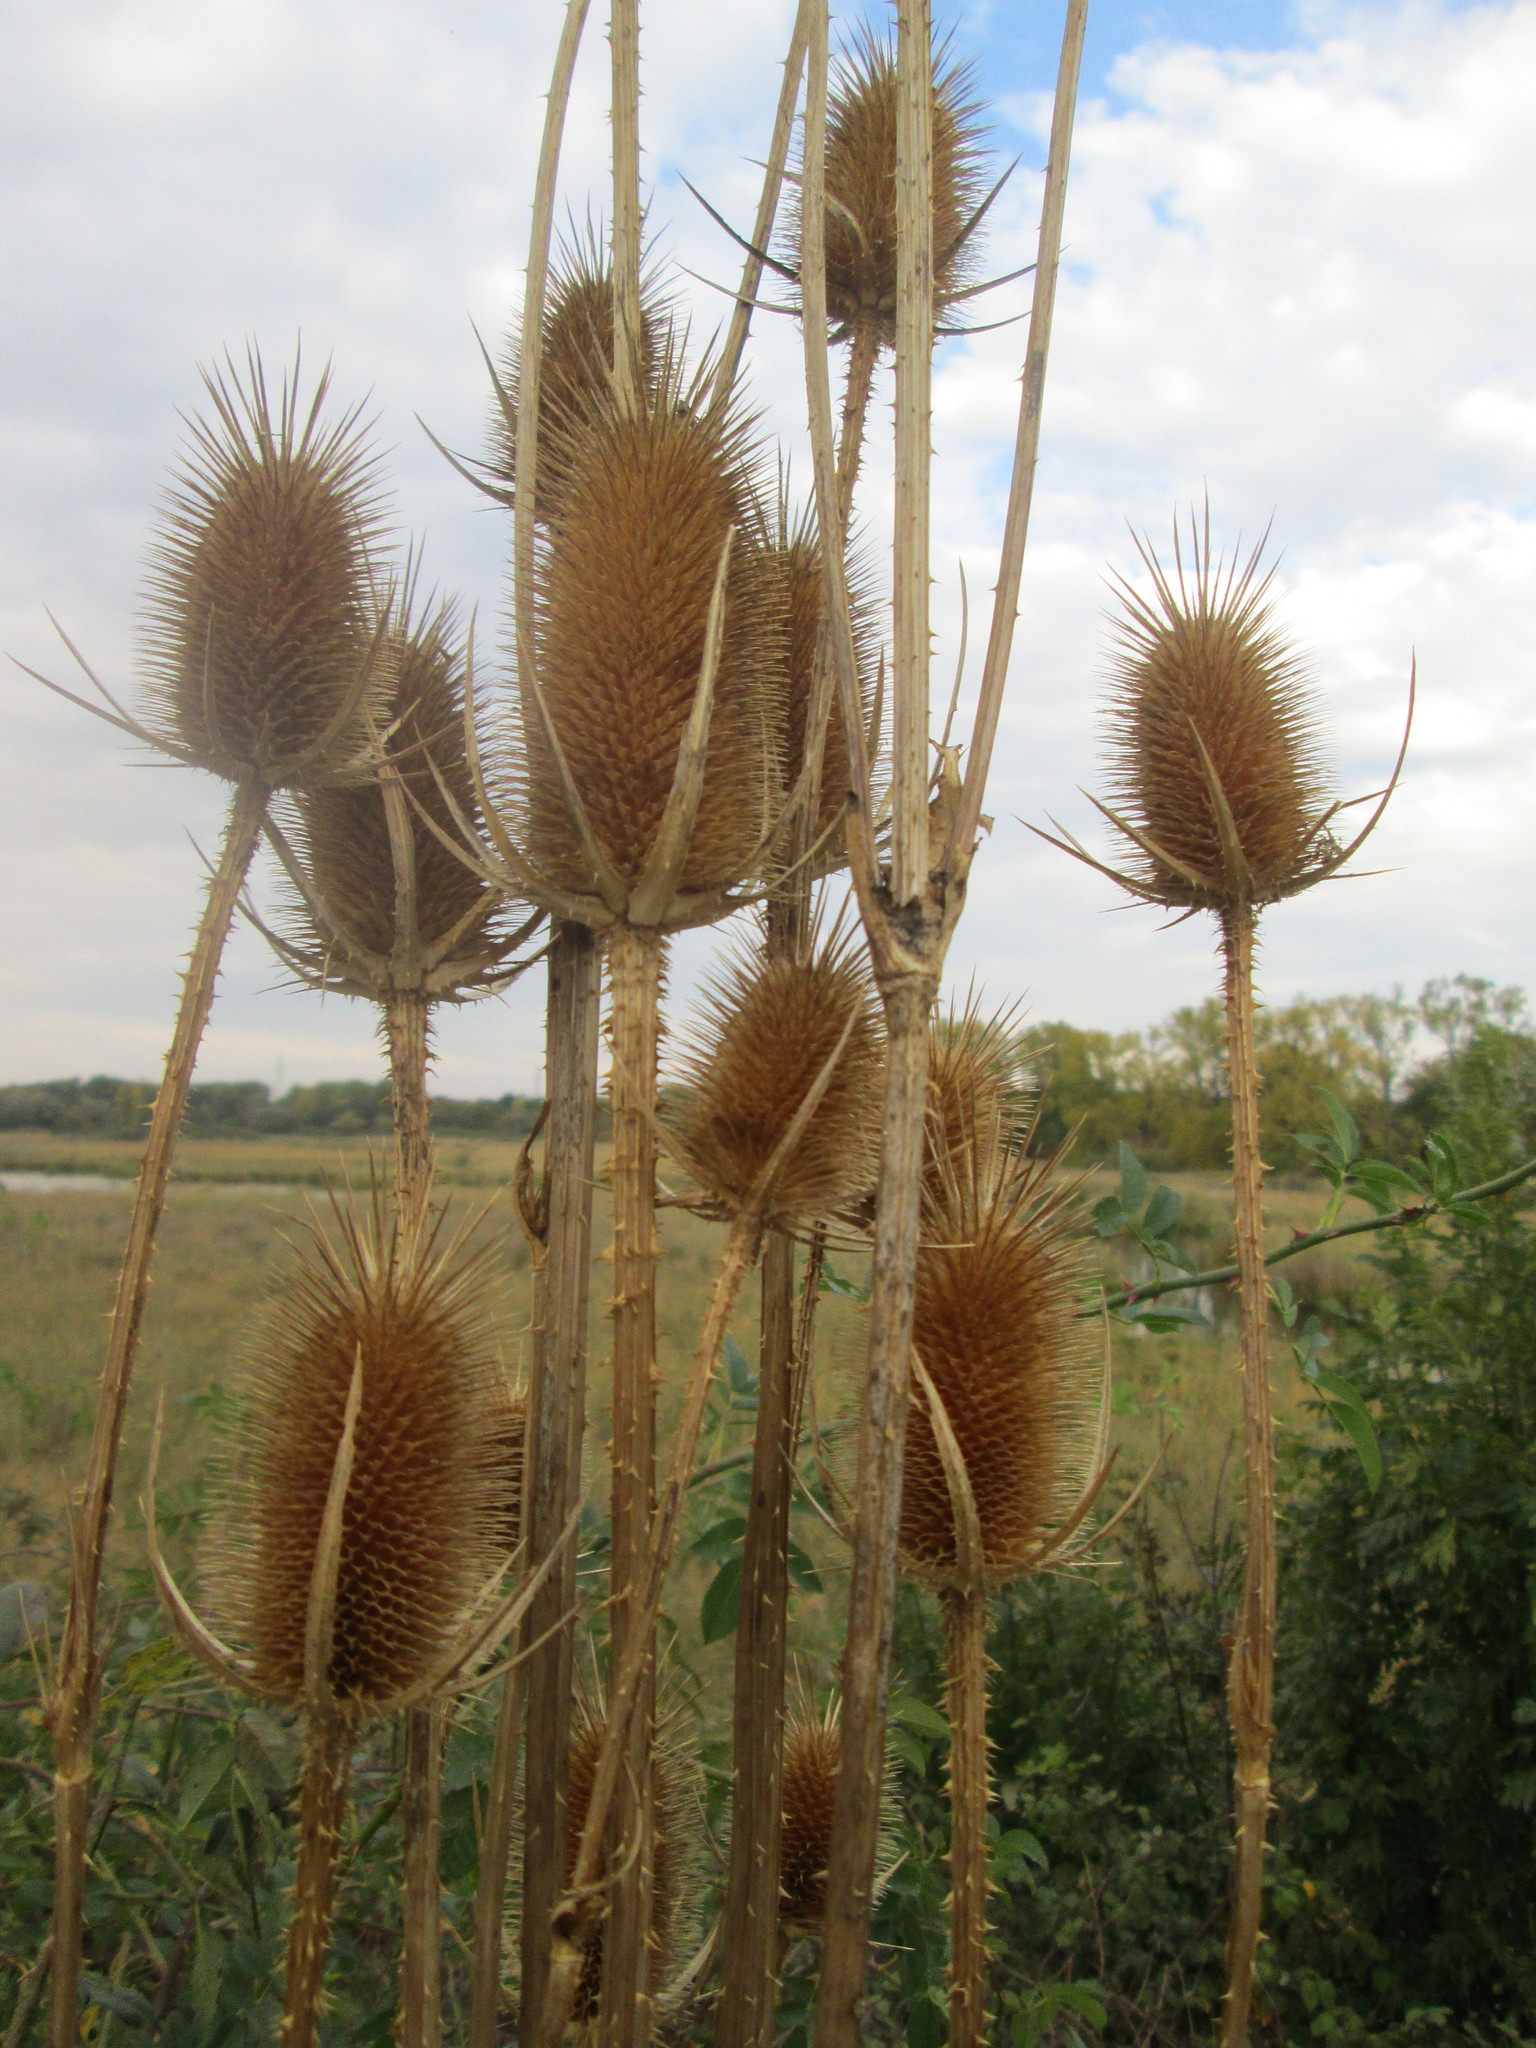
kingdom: Plantae
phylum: Tracheophyta
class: Magnoliopsida
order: Dipsacales
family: Caprifoliaceae
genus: Dipsacus
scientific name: Dipsacus fullonum
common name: Teasel
